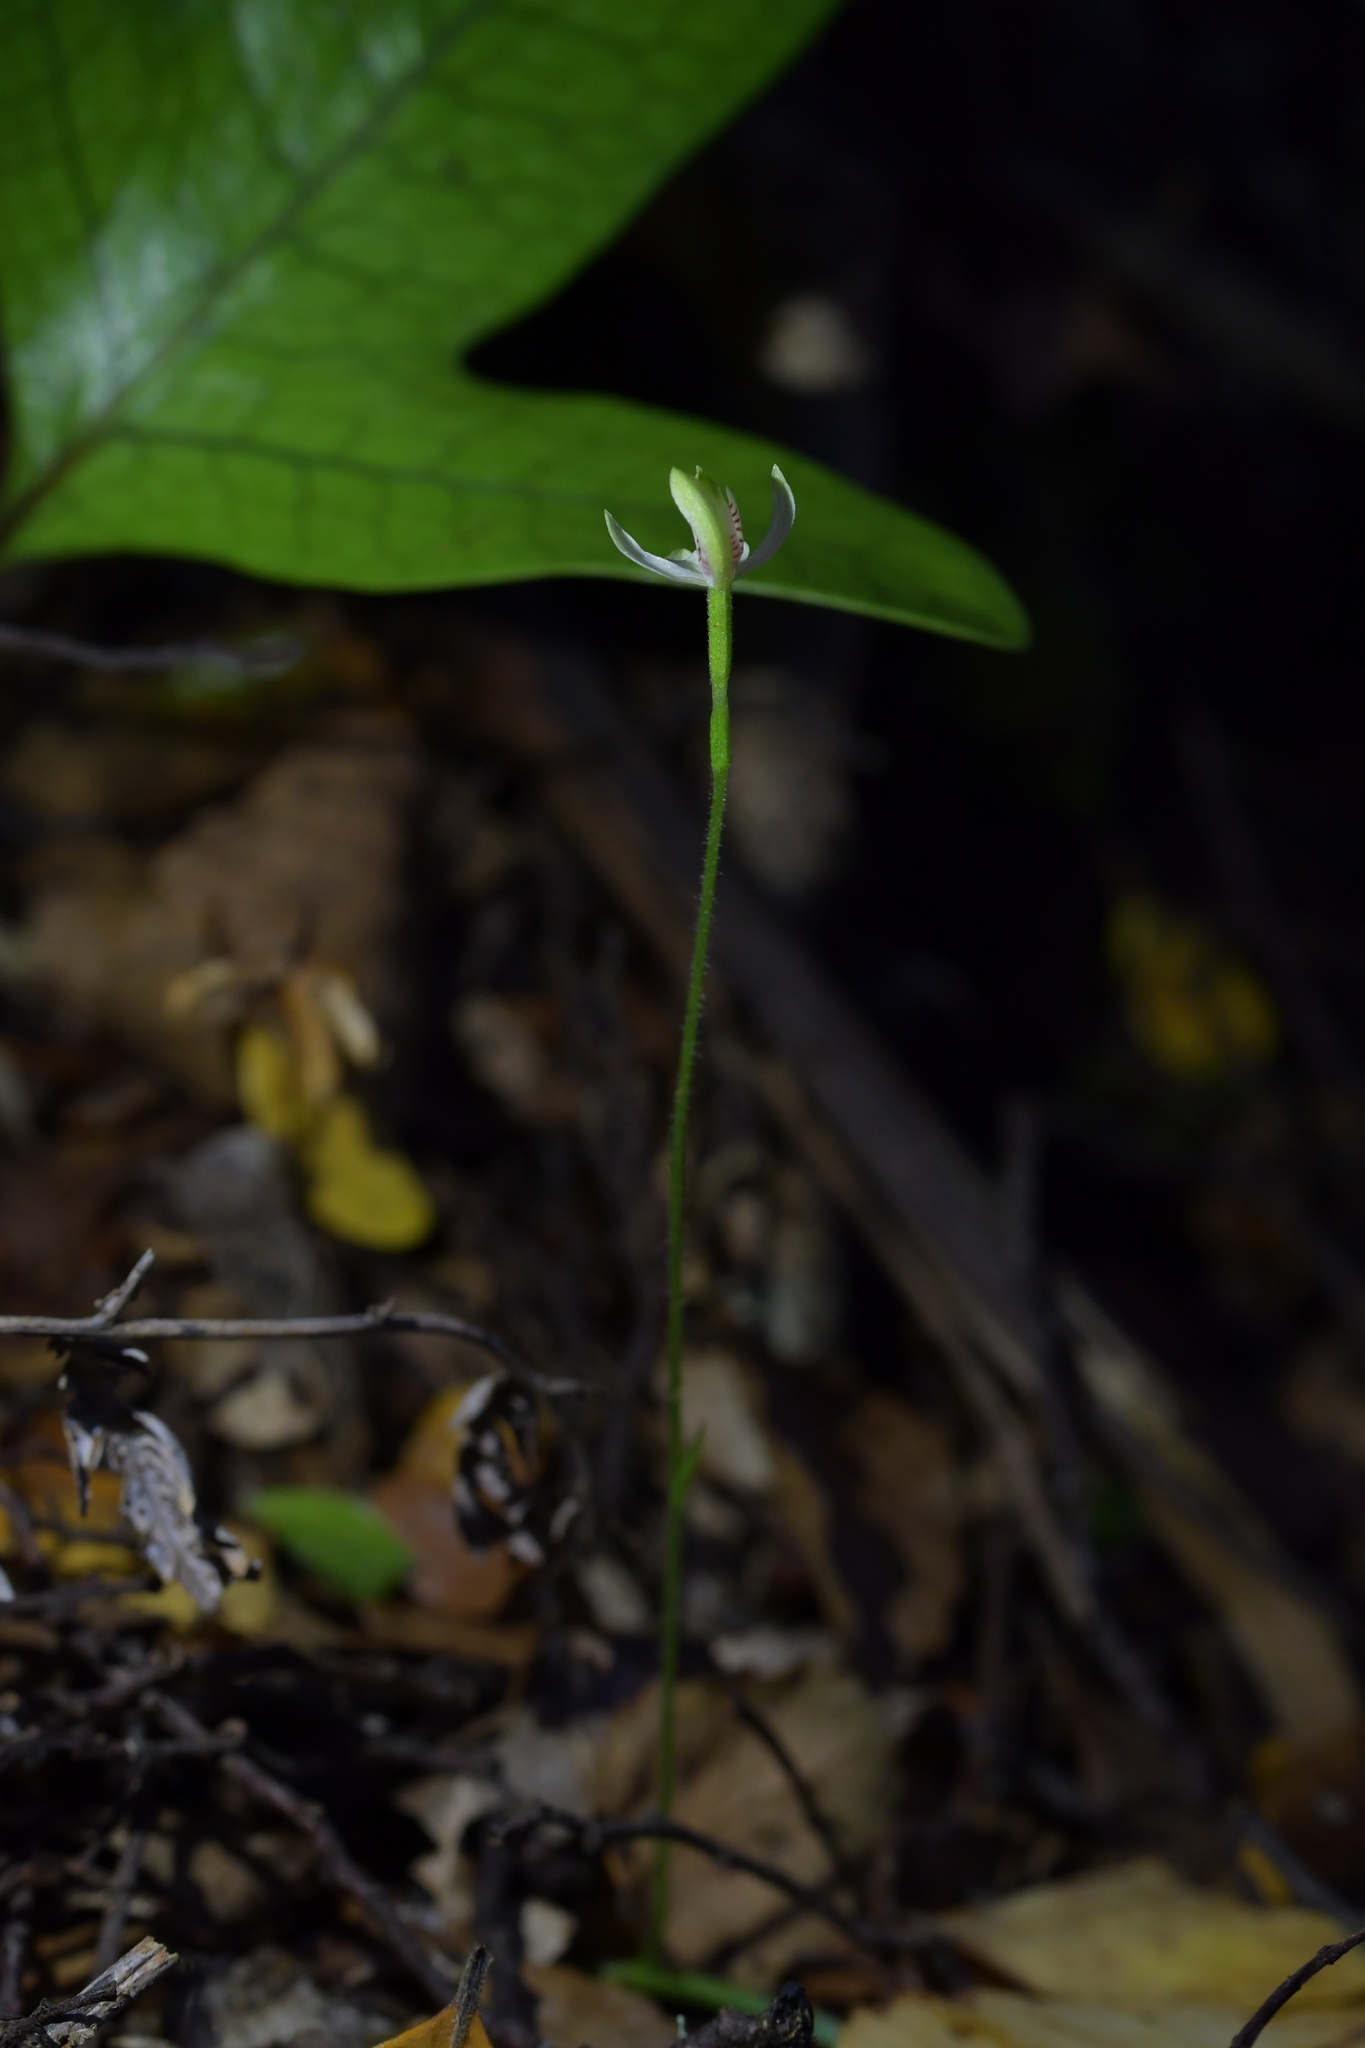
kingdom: Plantae
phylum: Tracheophyta
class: Liliopsida
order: Asparagales
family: Orchidaceae
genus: Caladenia
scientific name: Caladenia chlorostyla
